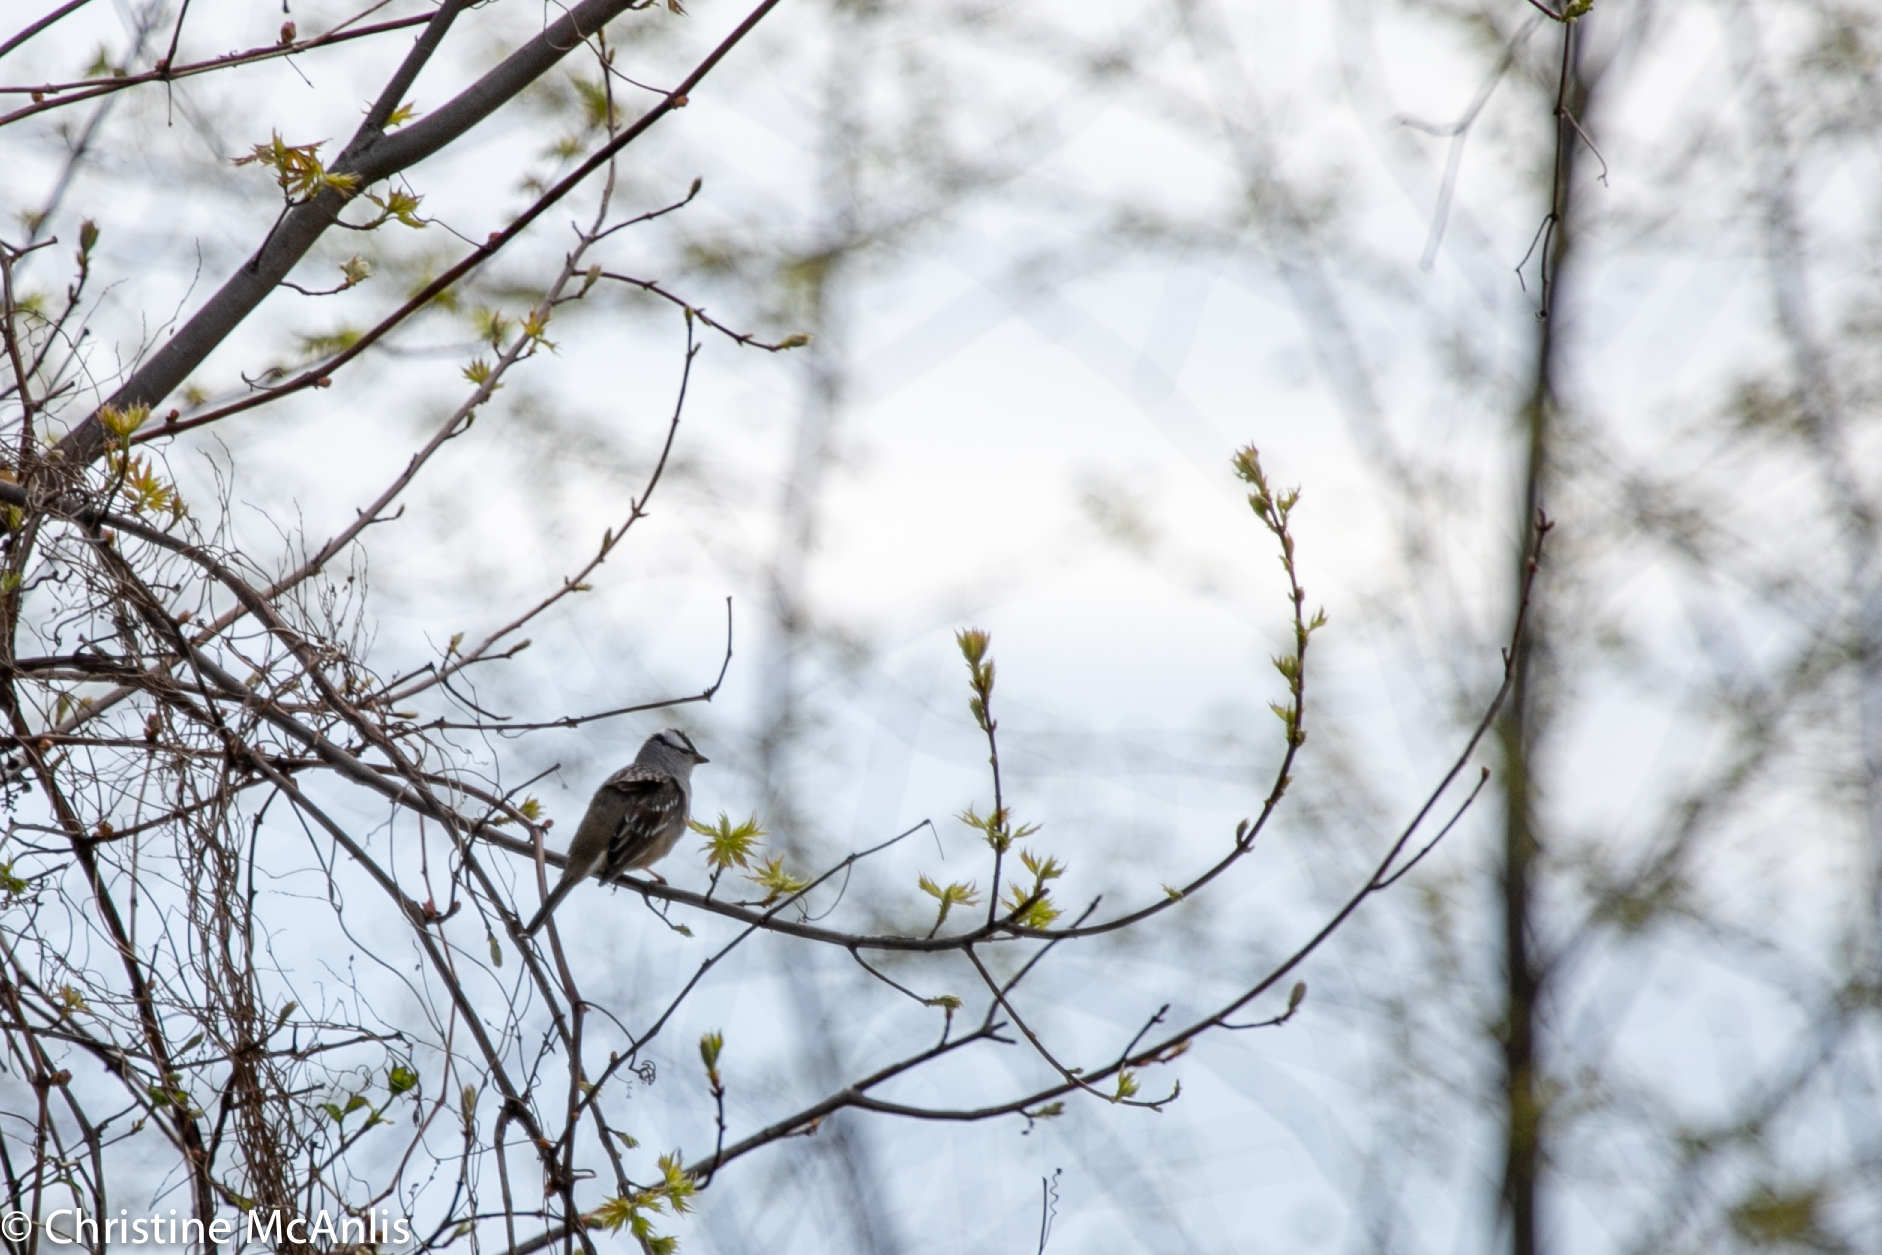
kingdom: Animalia
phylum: Chordata
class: Aves
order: Passeriformes
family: Passerellidae
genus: Zonotrichia
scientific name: Zonotrichia leucophrys
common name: White-crowned sparrow
